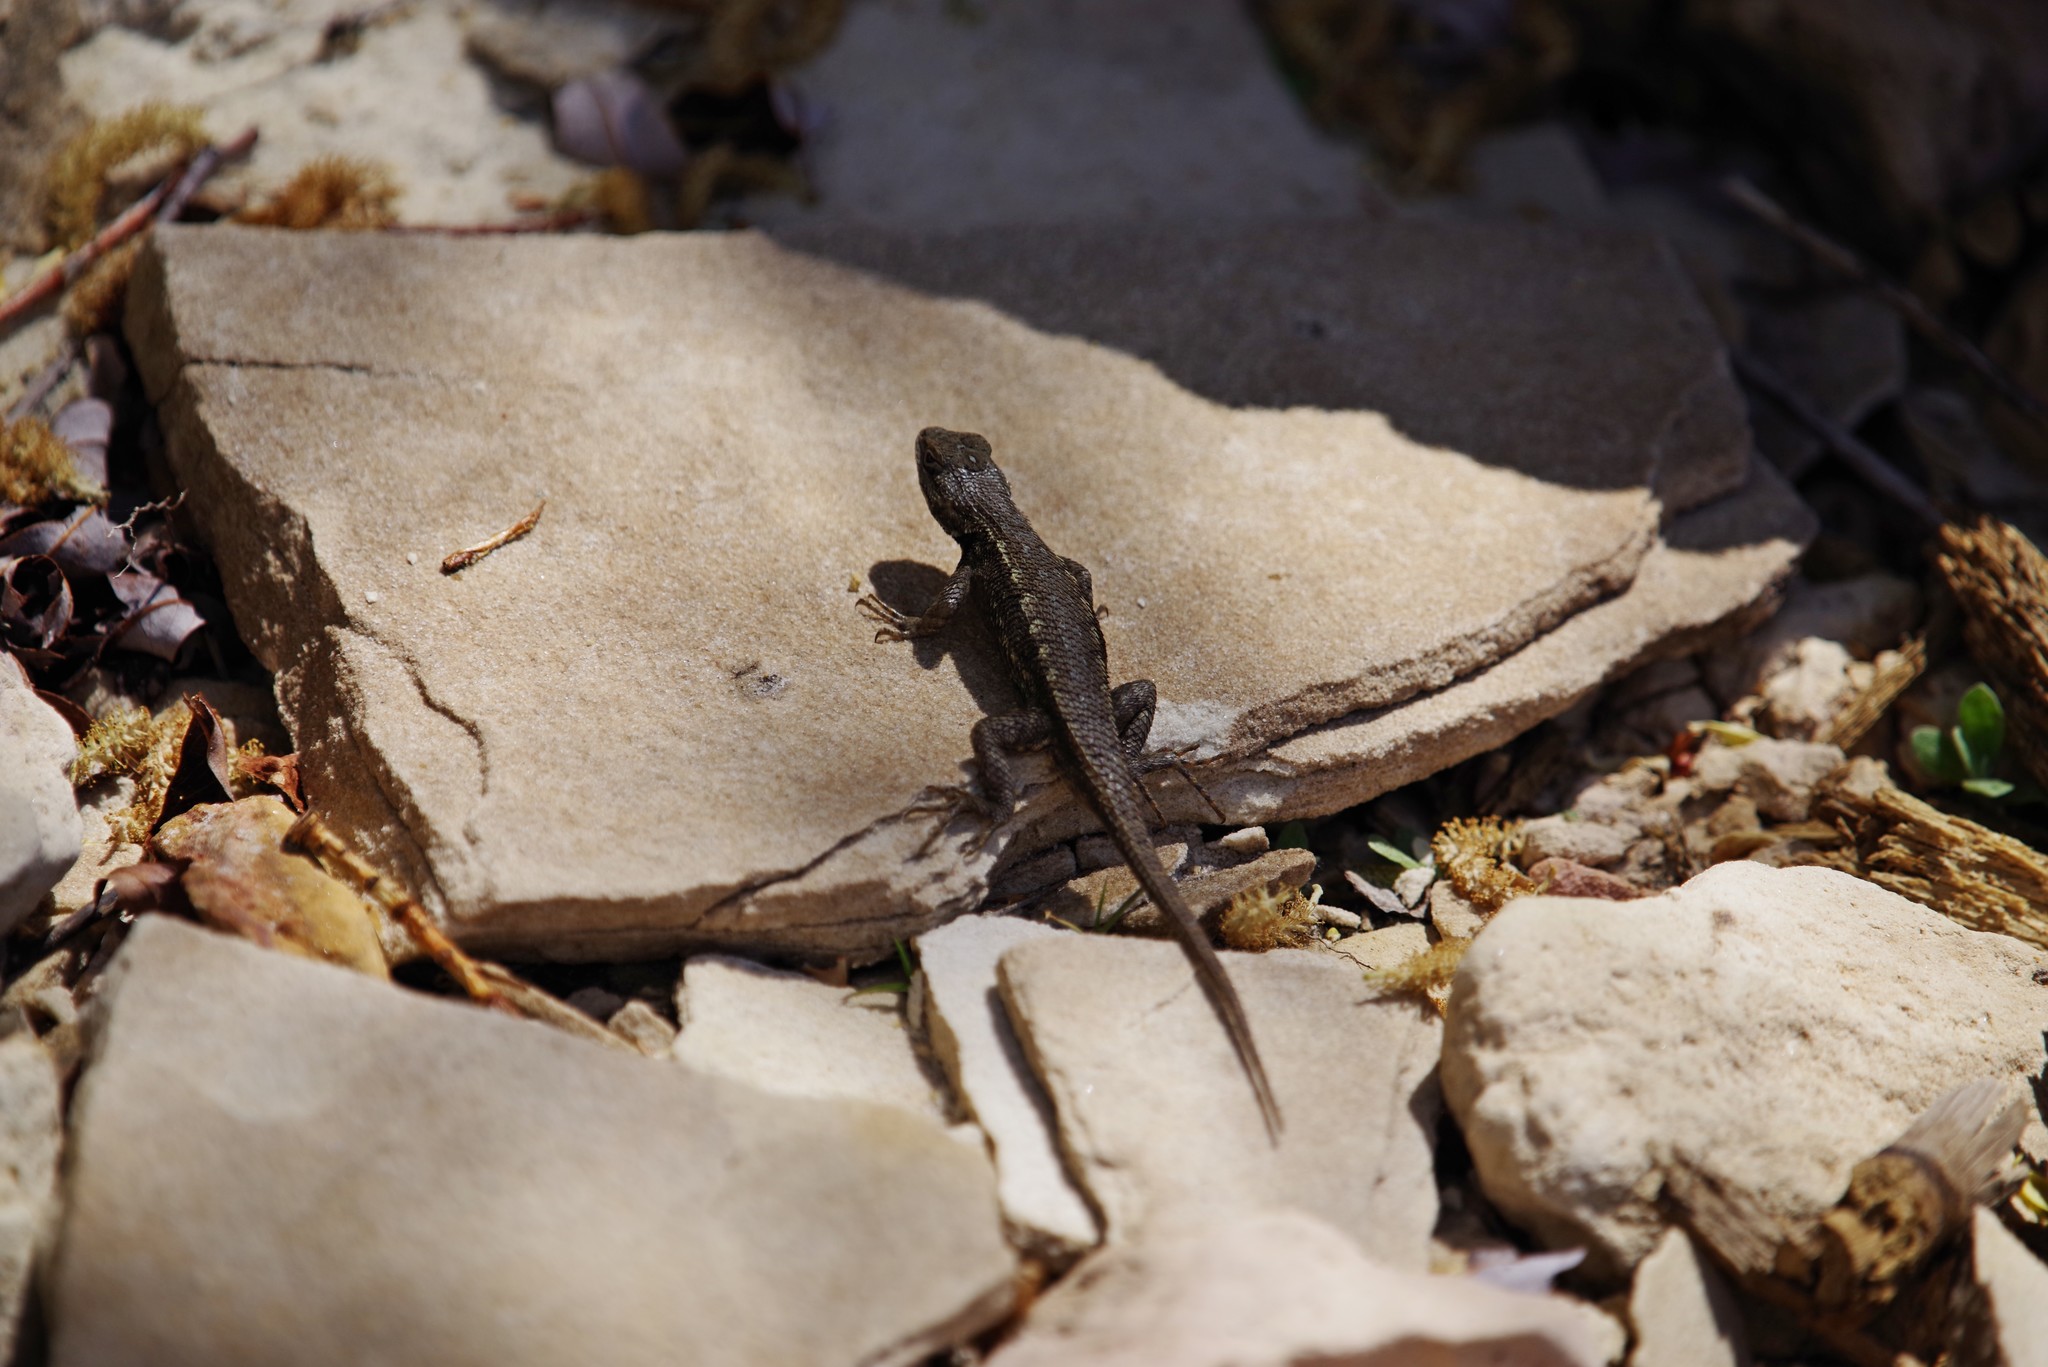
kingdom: Animalia
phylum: Chordata
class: Squamata
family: Phrynosomatidae
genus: Sceloporus
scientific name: Sceloporus tristichus
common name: Plateau fence lizard
